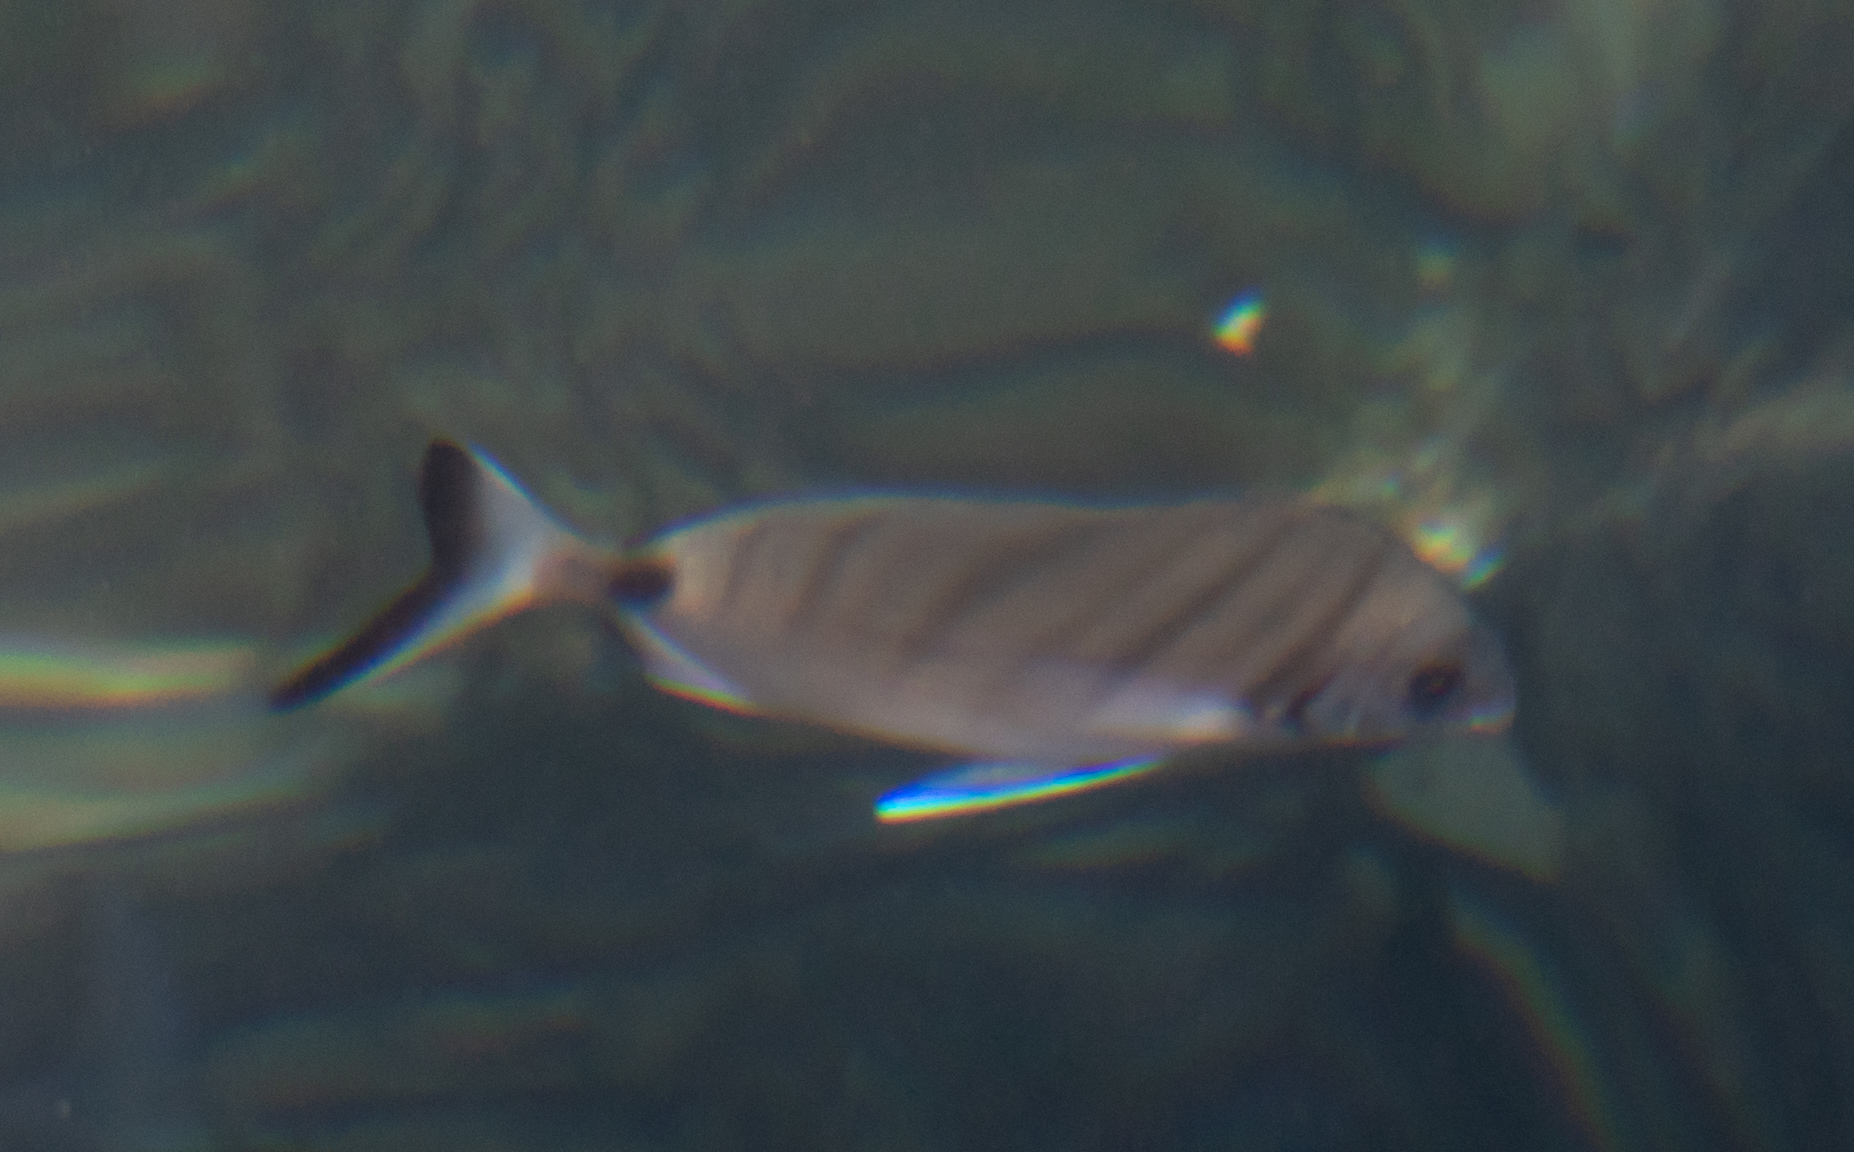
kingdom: Animalia
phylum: Chordata
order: Perciformes
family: Sparidae
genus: Diplodus
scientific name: Diplodus sargus
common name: White seabream
